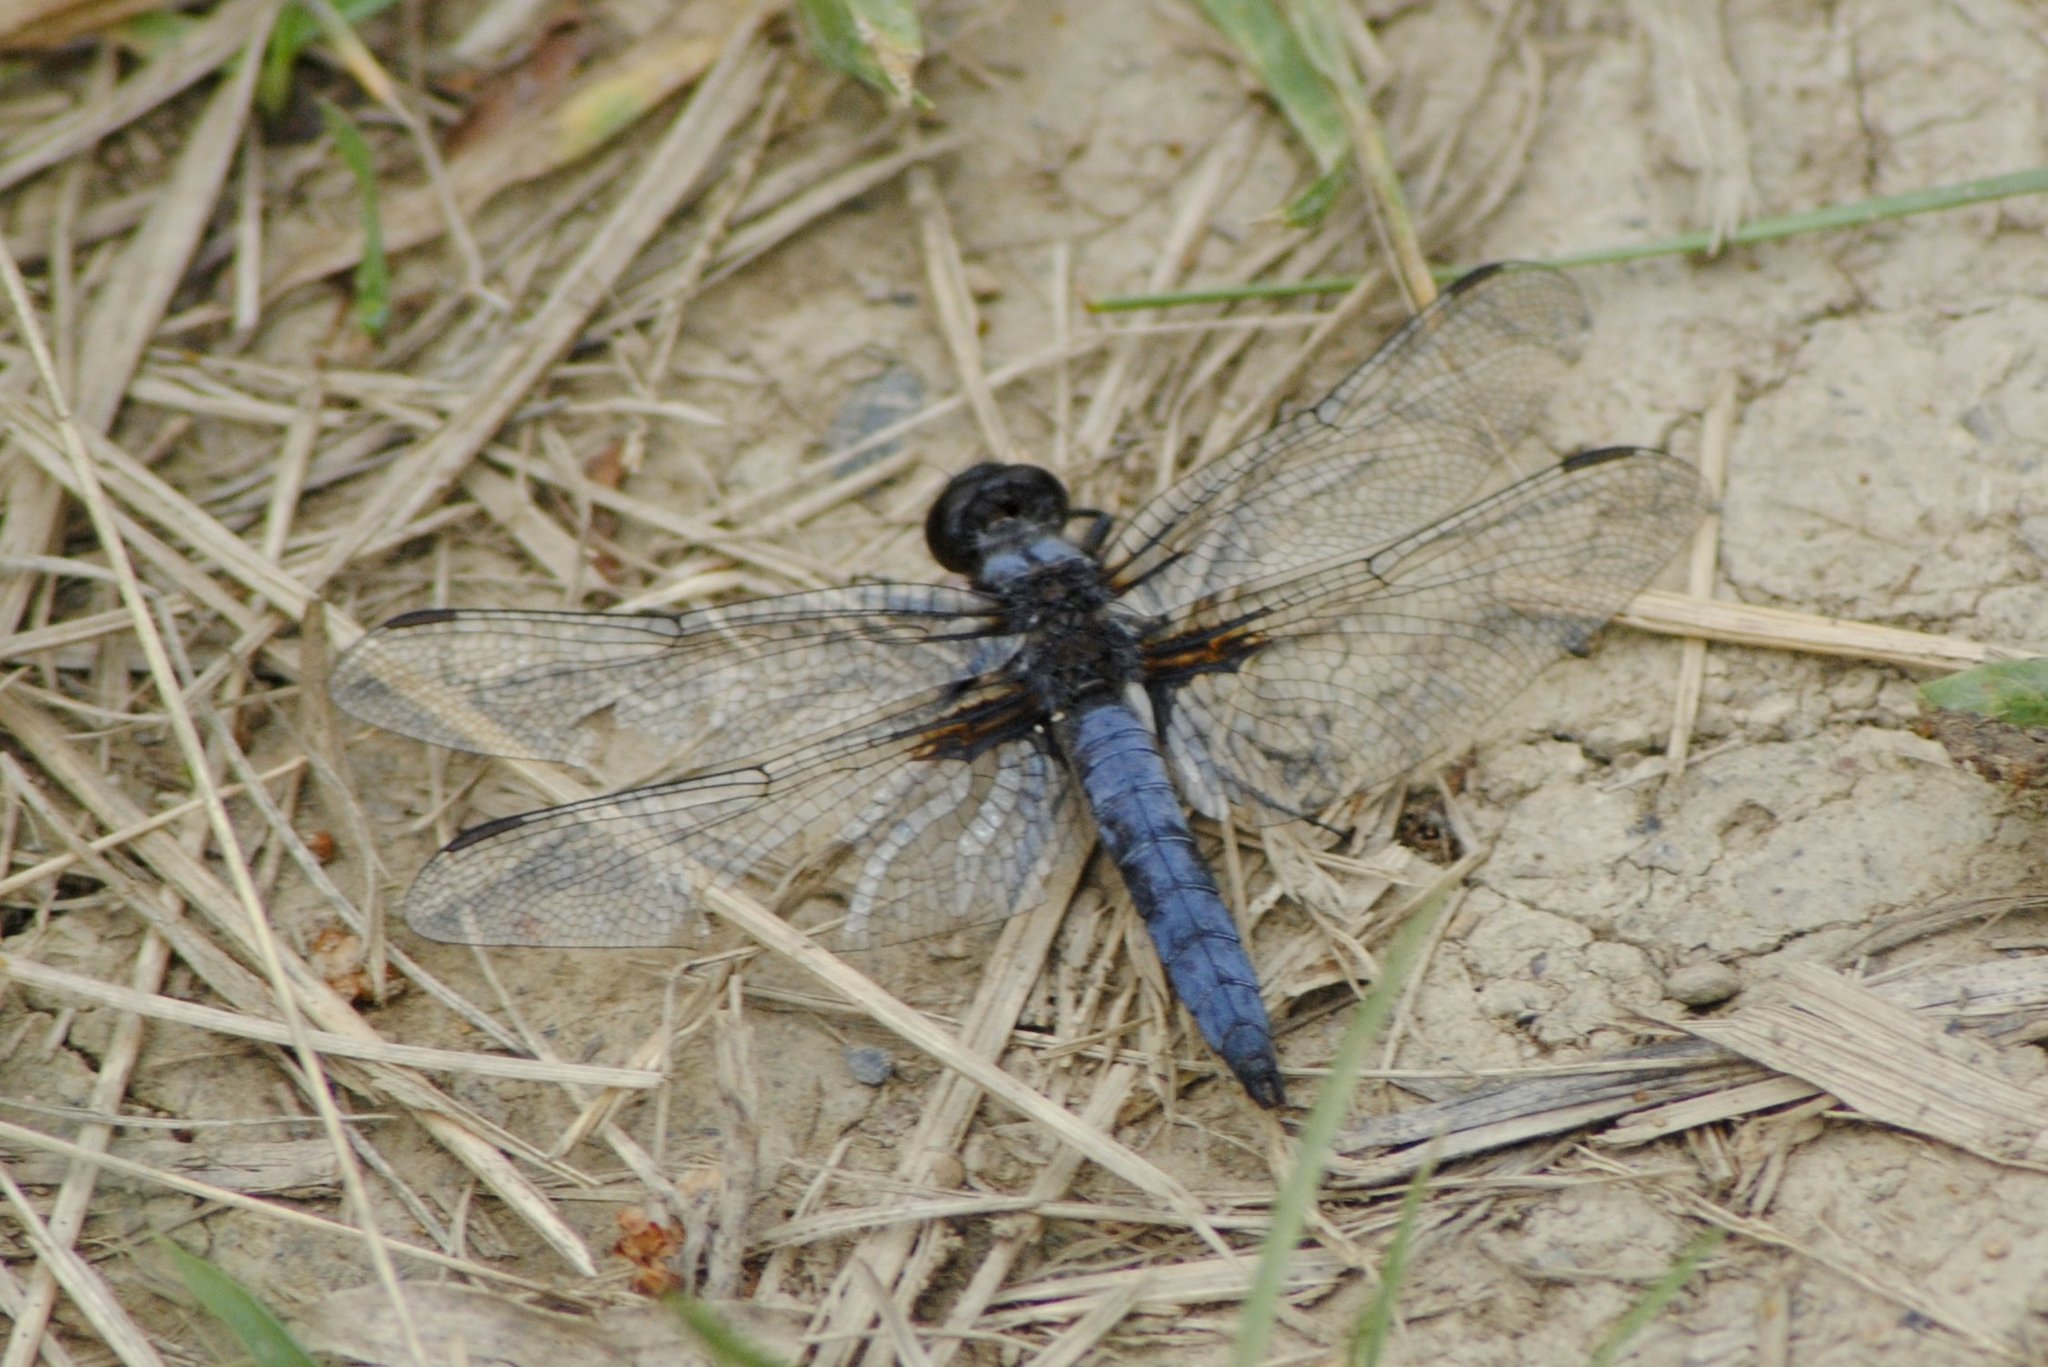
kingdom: Animalia
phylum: Arthropoda
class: Insecta
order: Odonata
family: Libellulidae
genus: Ladona
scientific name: Ladona deplanata
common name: Blue corporal
